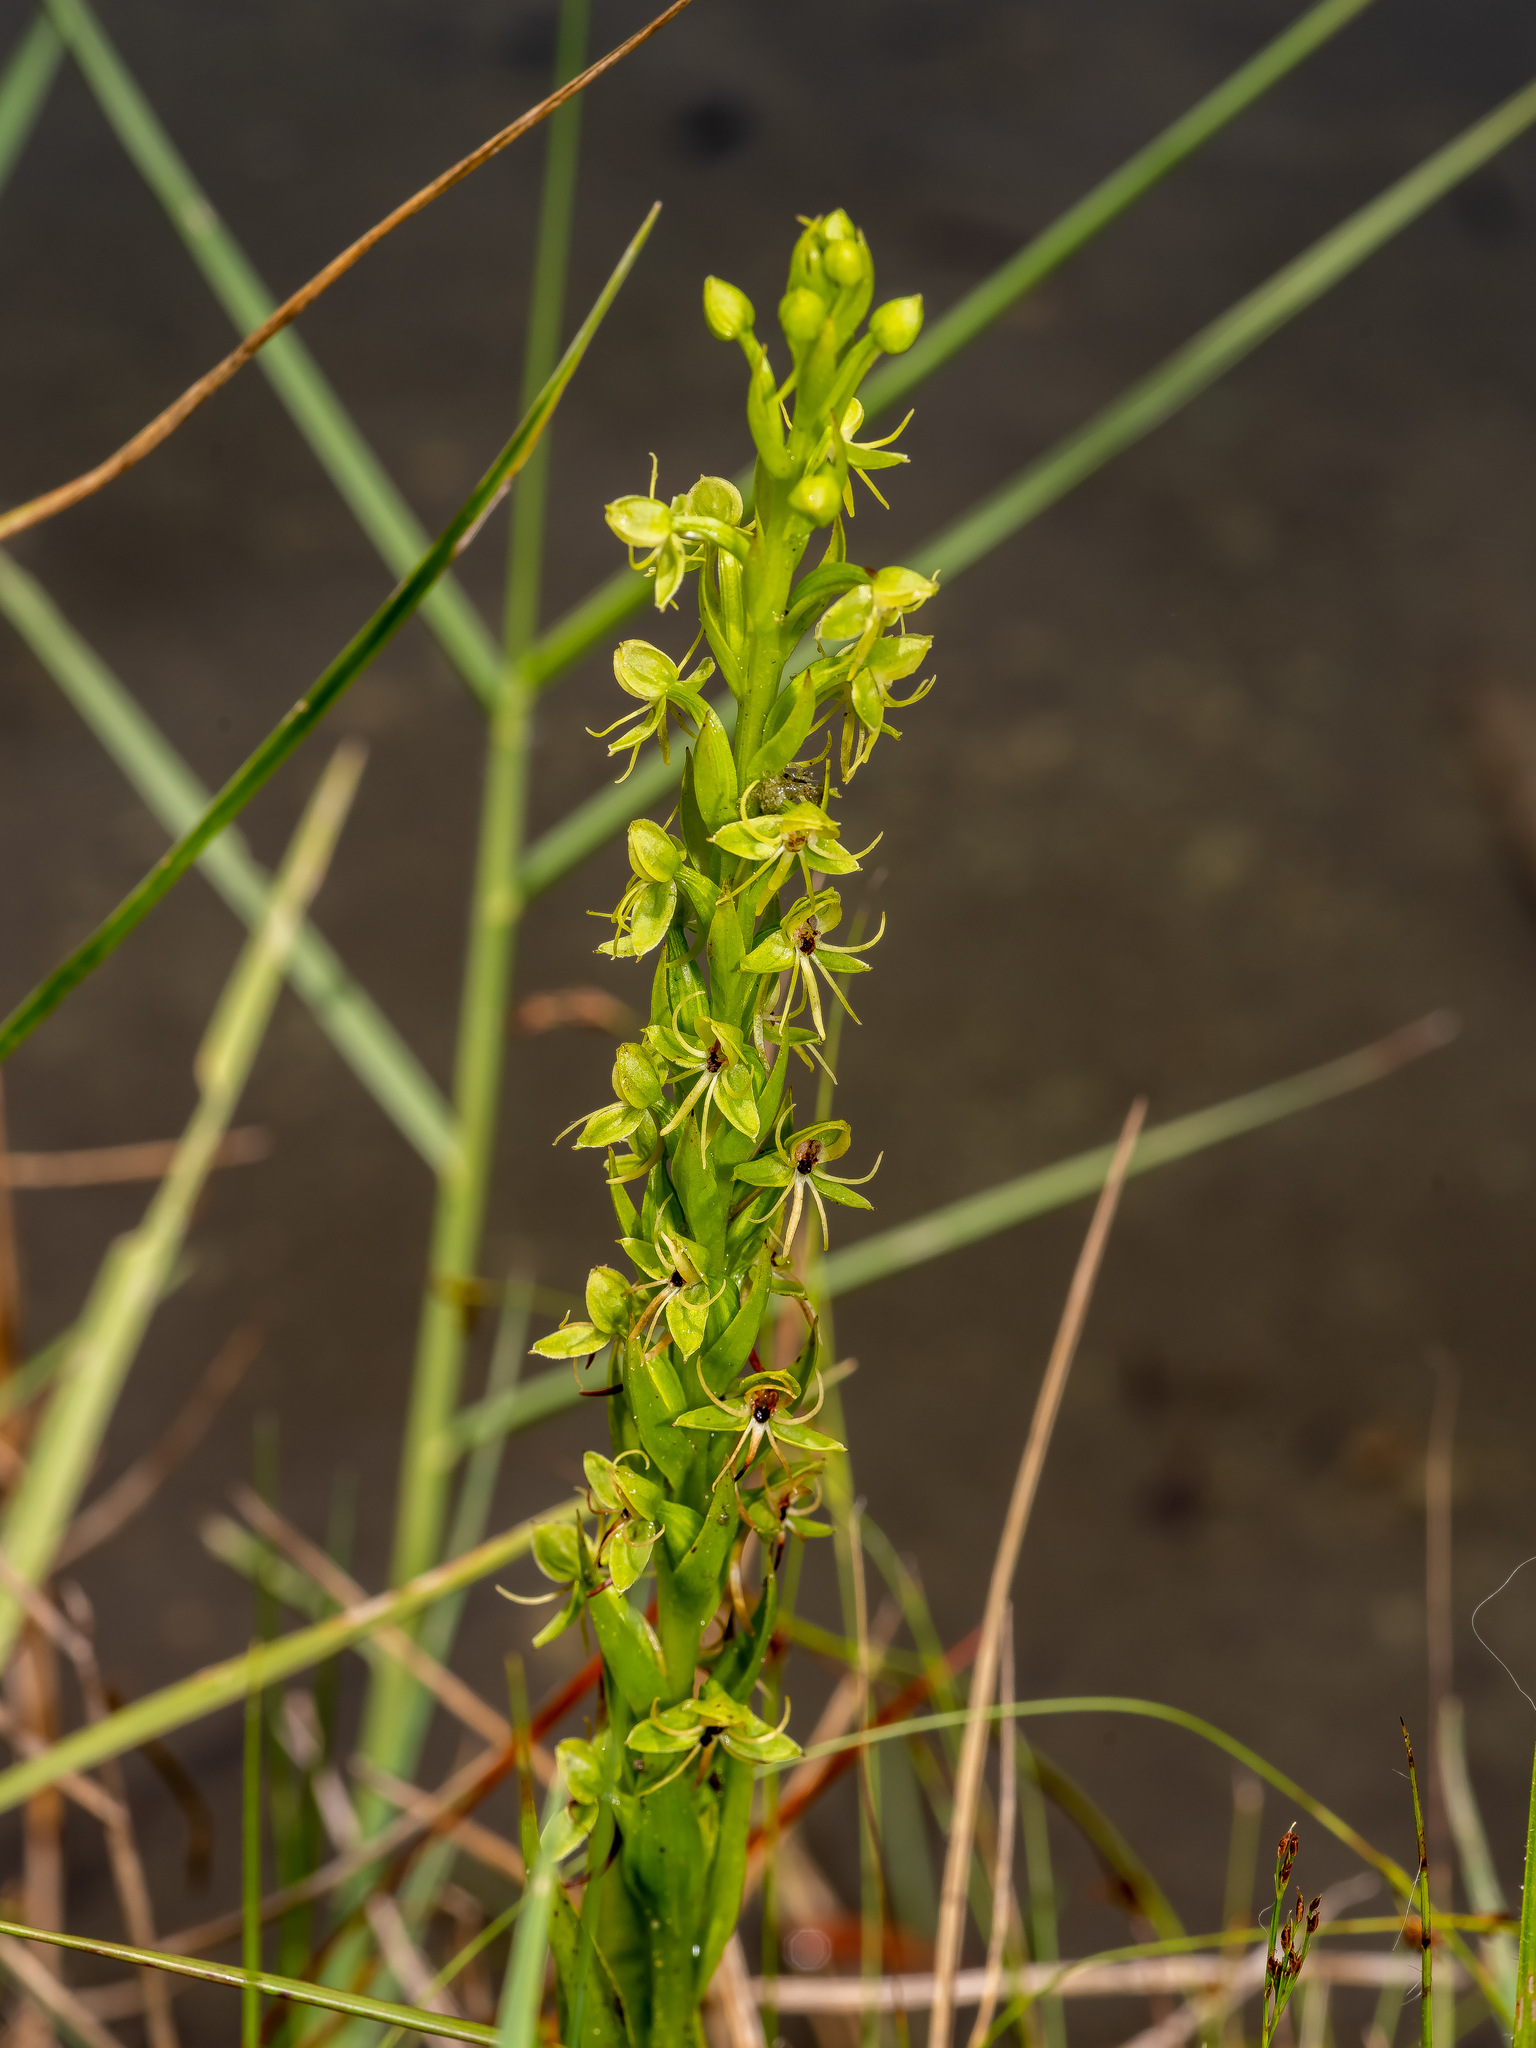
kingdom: Plantae
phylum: Tracheophyta
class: Liliopsida
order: Asparagales
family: Orchidaceae
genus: Habenaria
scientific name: Habenaria repens
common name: Water orchid
